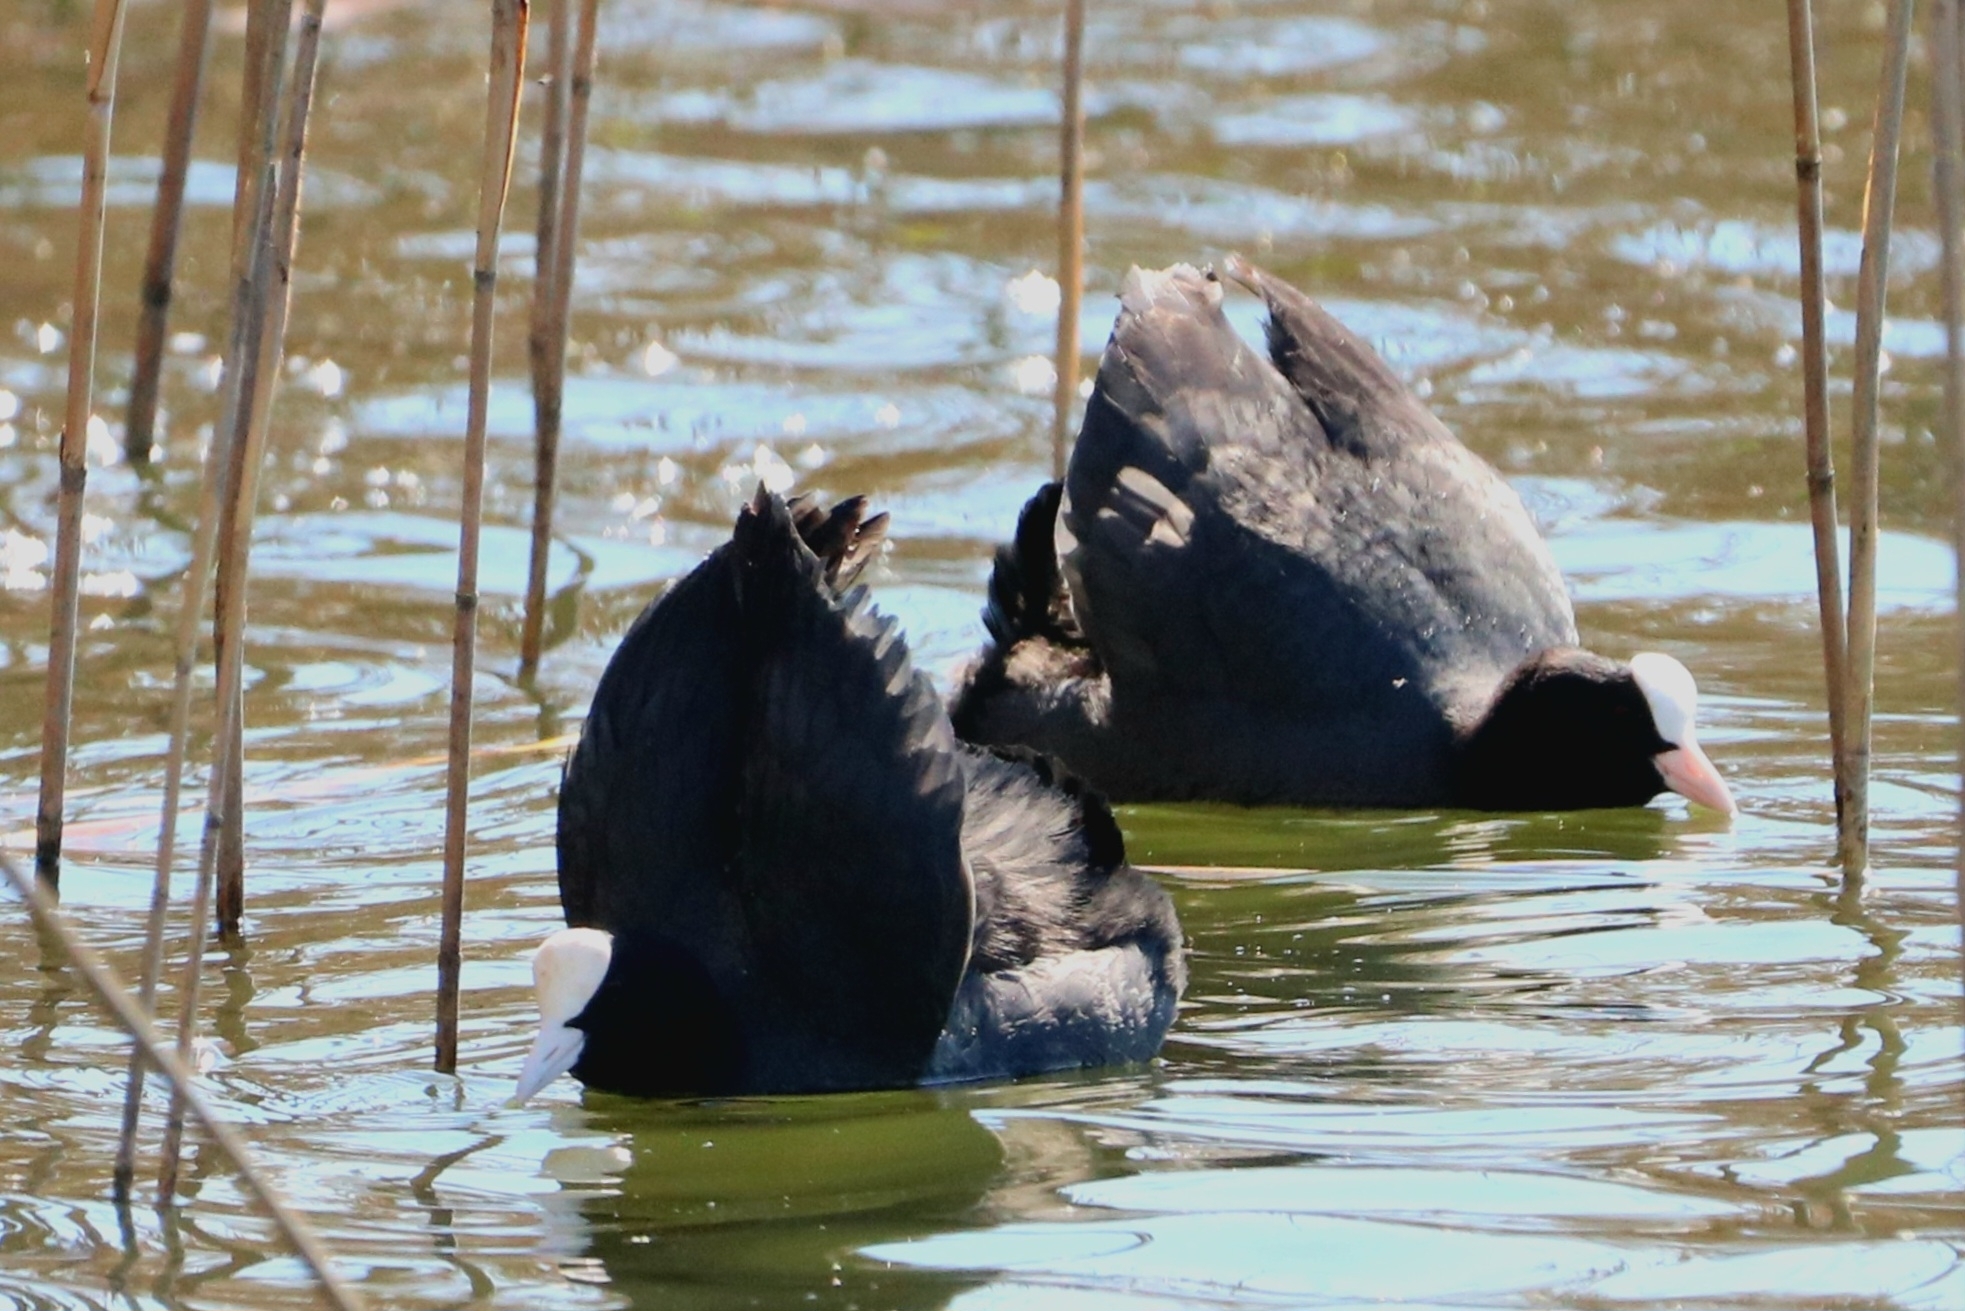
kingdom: Animalia
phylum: Chordata
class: Aves
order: Gruiformes
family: Rallidae
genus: Fulica
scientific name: Fulica atra
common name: Eurasian coot
